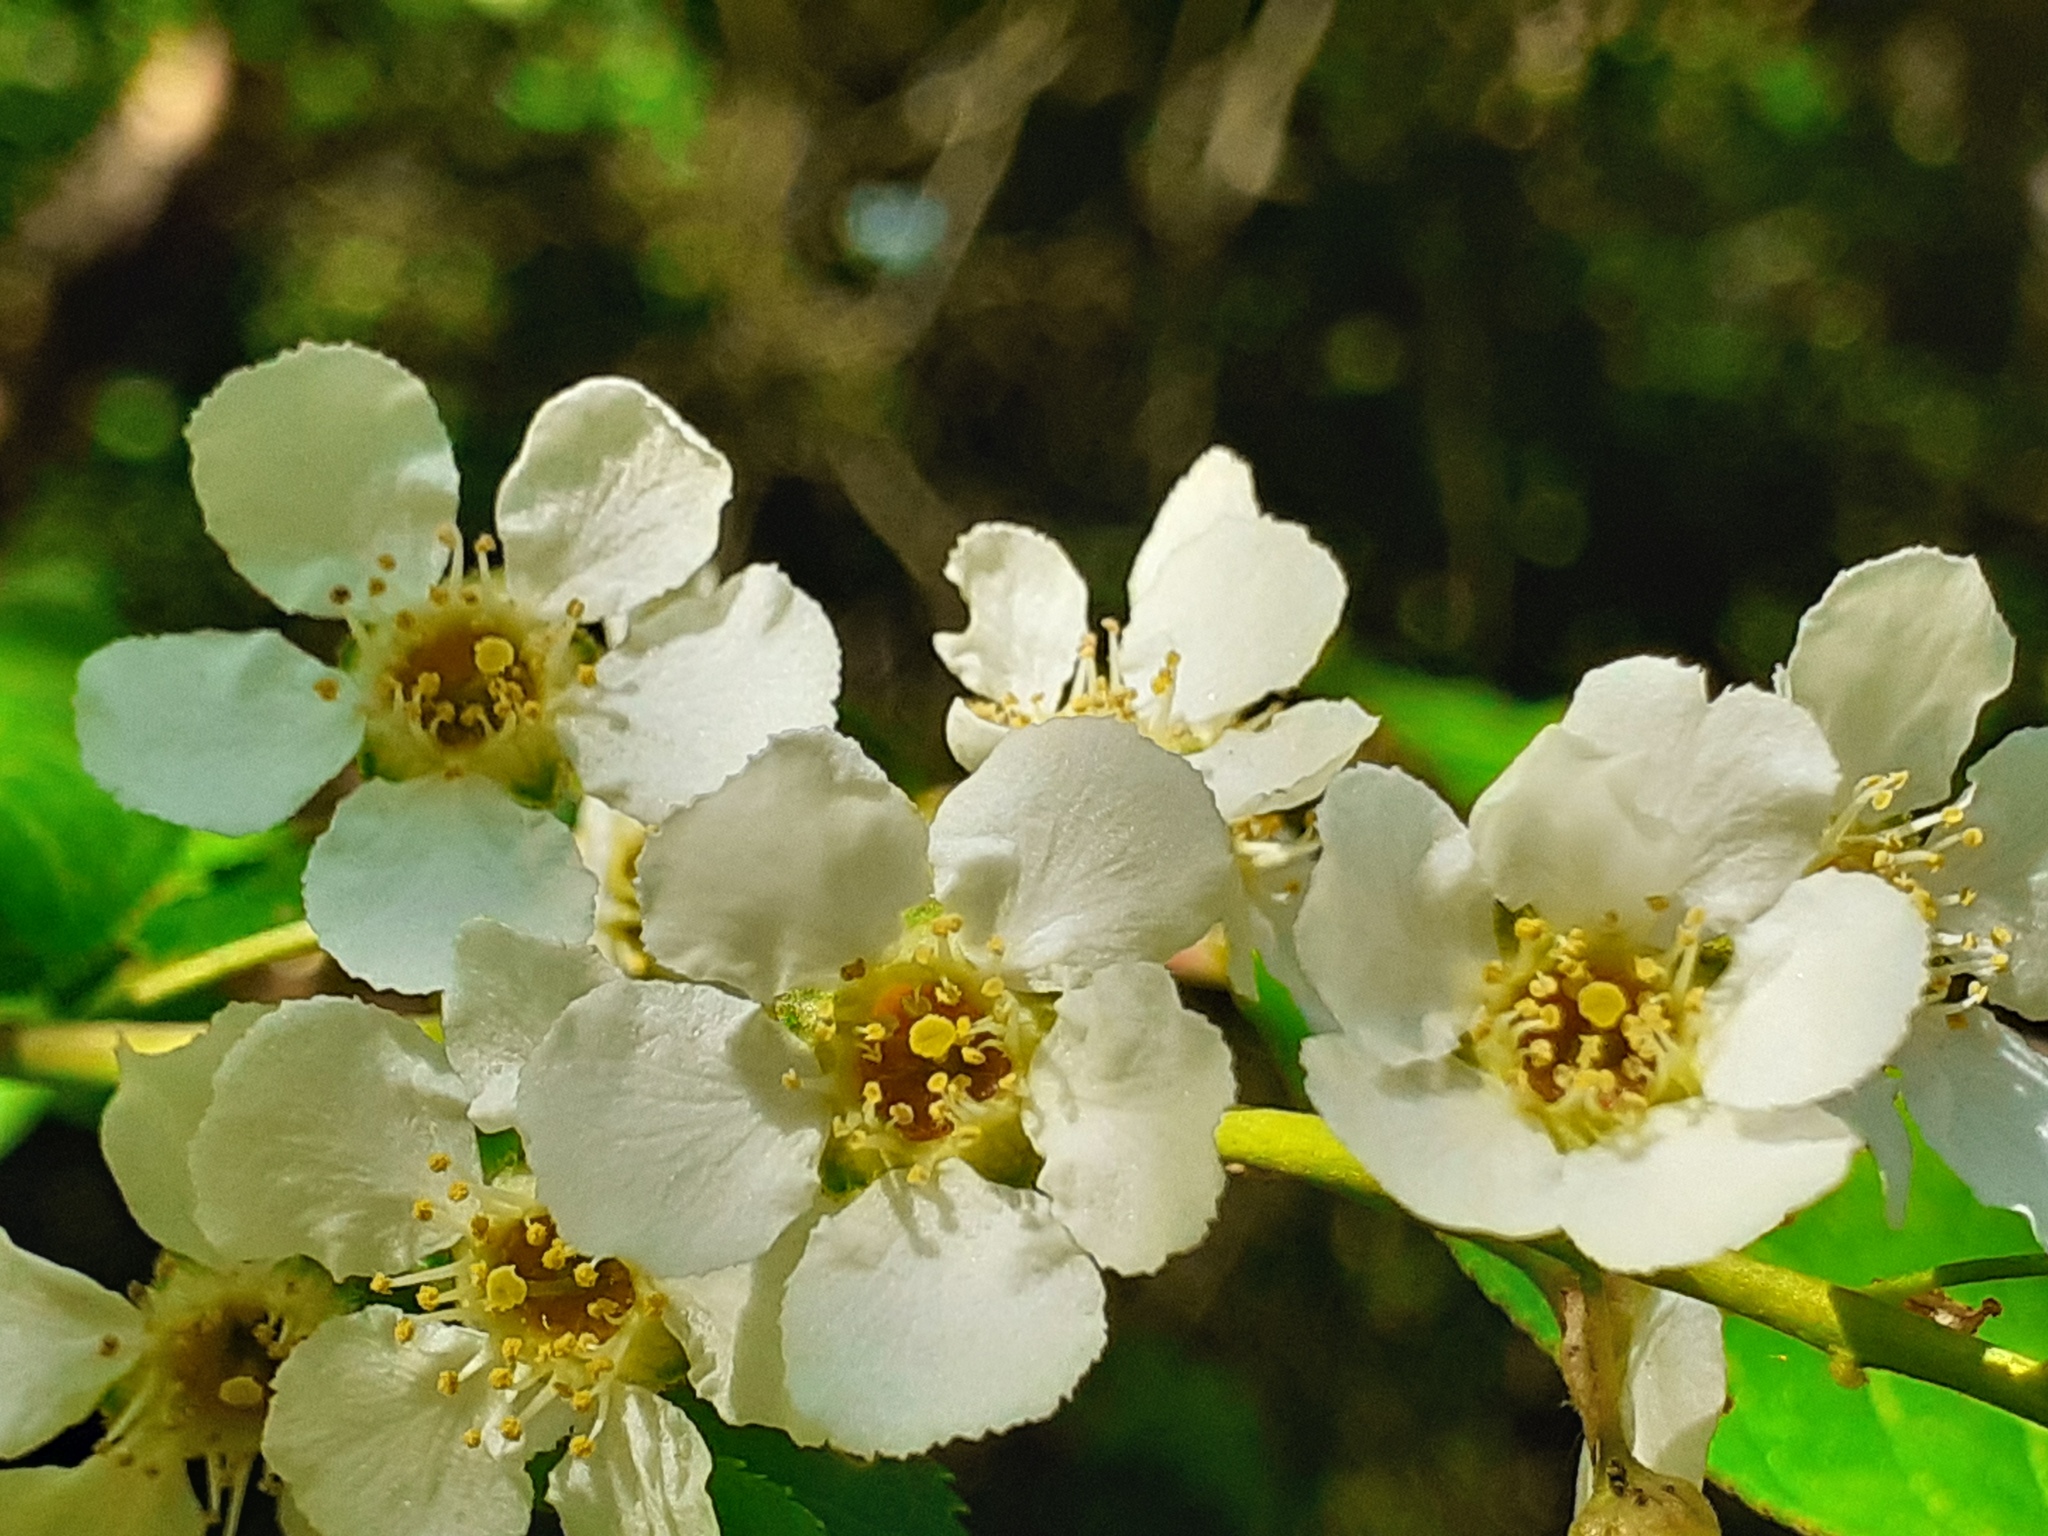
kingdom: Plantae
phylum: Tracheophyta
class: Magnoliopsida
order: Rosales
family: Rosaceae
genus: Prunus
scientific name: Prunus padus
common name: Bird cherry
